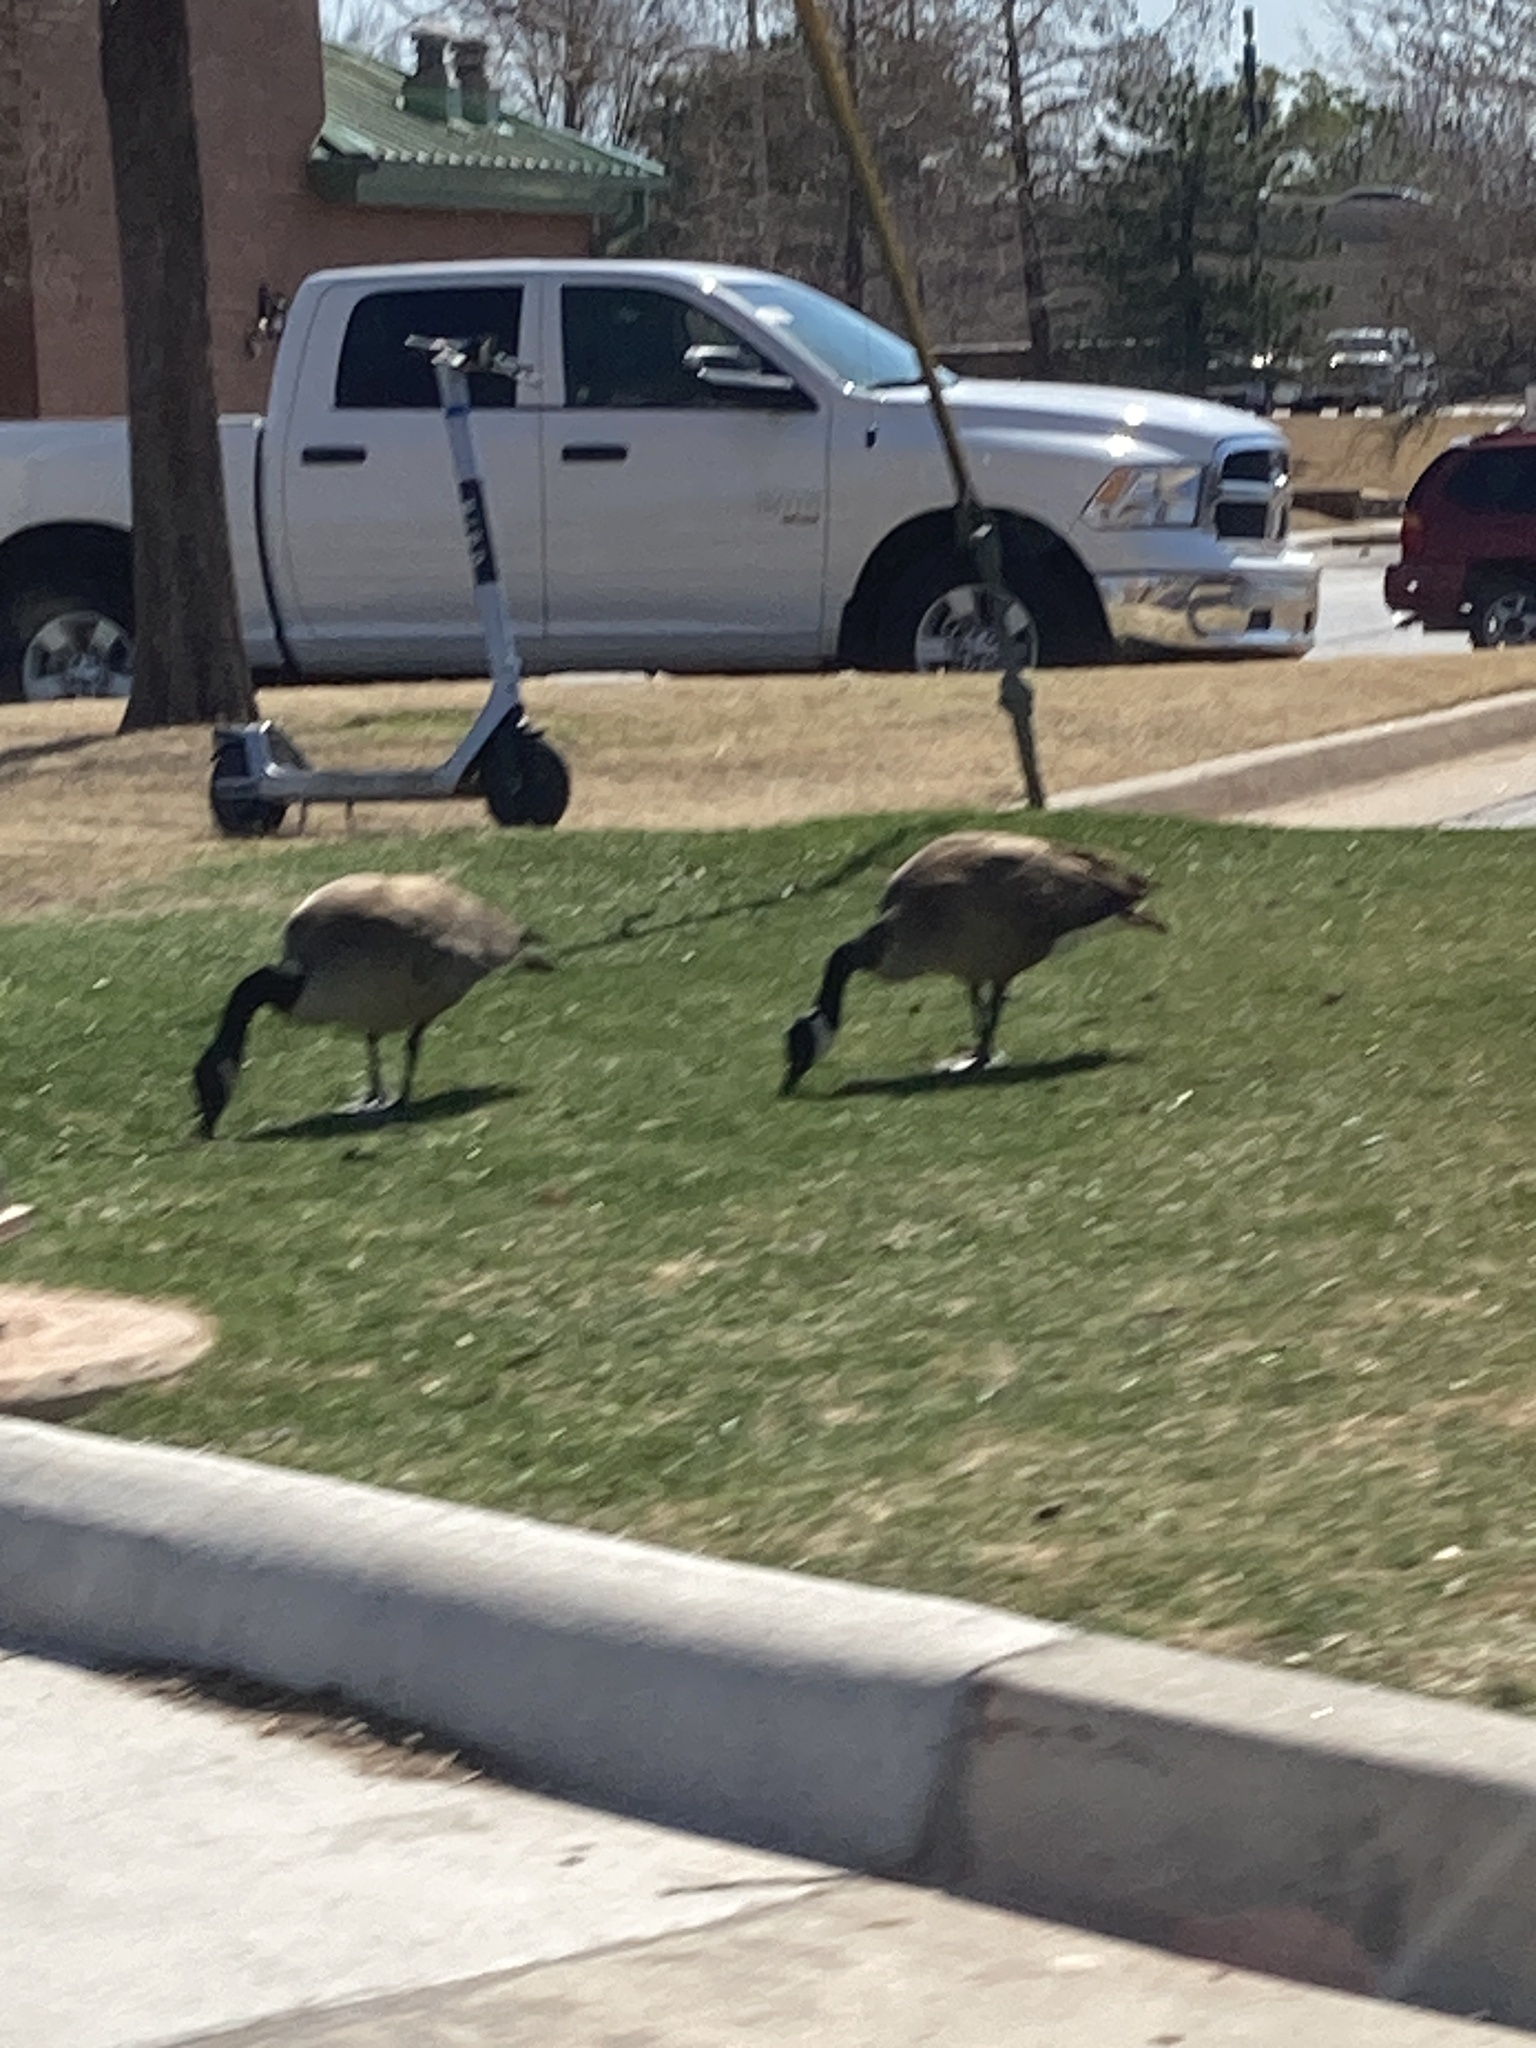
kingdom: Animalia
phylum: Chordata
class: Aves
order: Anseriformes
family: Anatidae
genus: Branta
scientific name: Branta canadensis
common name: Canada goose
